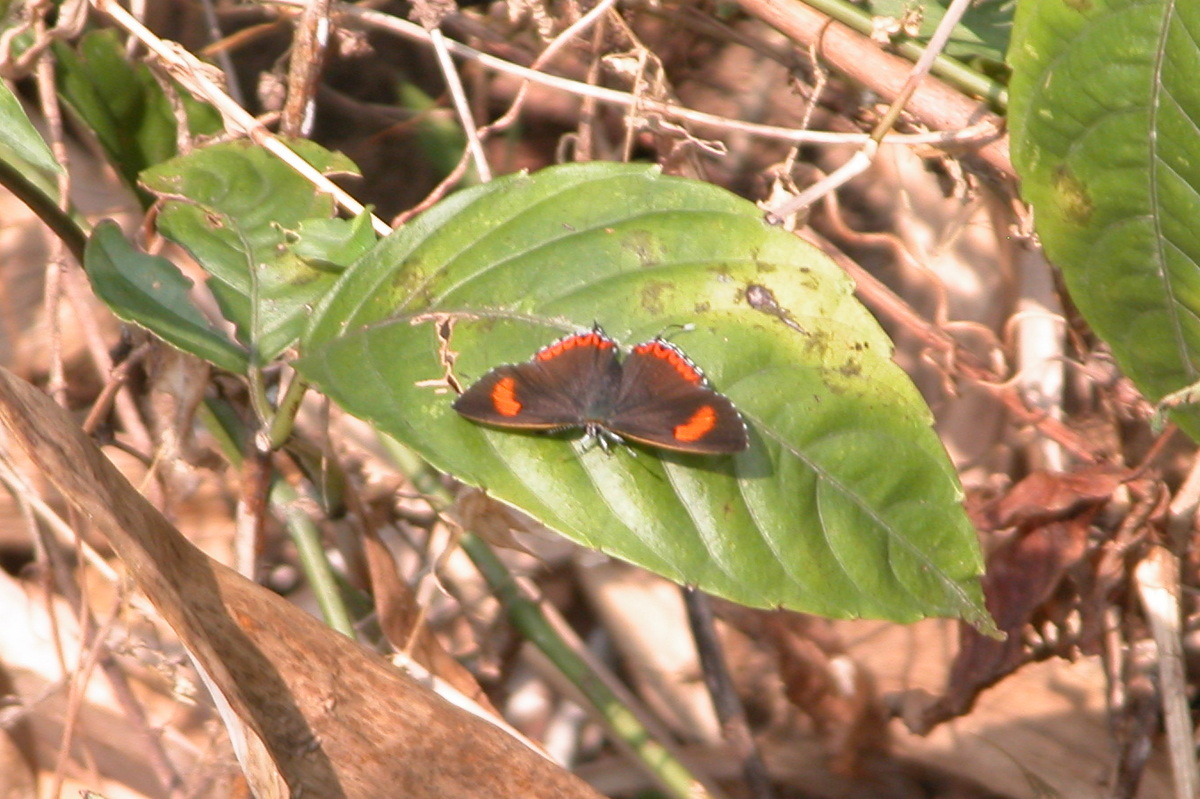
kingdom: Animalia
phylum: Arthropoda
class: Insecta
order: Lepidoptera
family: Lycaenidae
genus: Heliophorus
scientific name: Heliophorus epicles
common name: Purple sapphire
